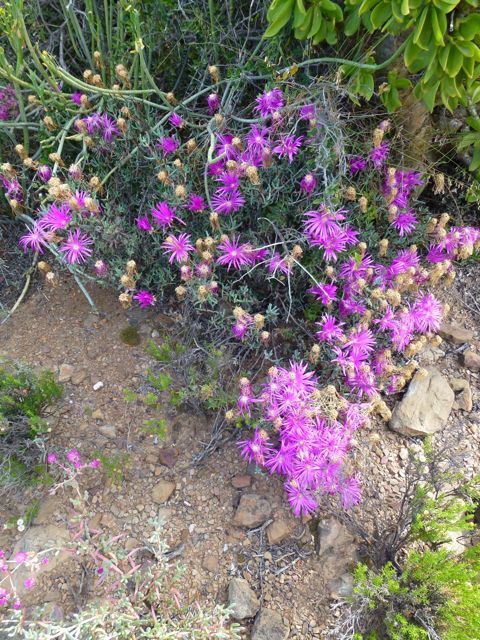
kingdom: Plantae
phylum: Tracheophyta
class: Magnoliopsida
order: Caryophyllales
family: Aizoaceae
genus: Lampranthus
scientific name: Lampranthus haworthii
